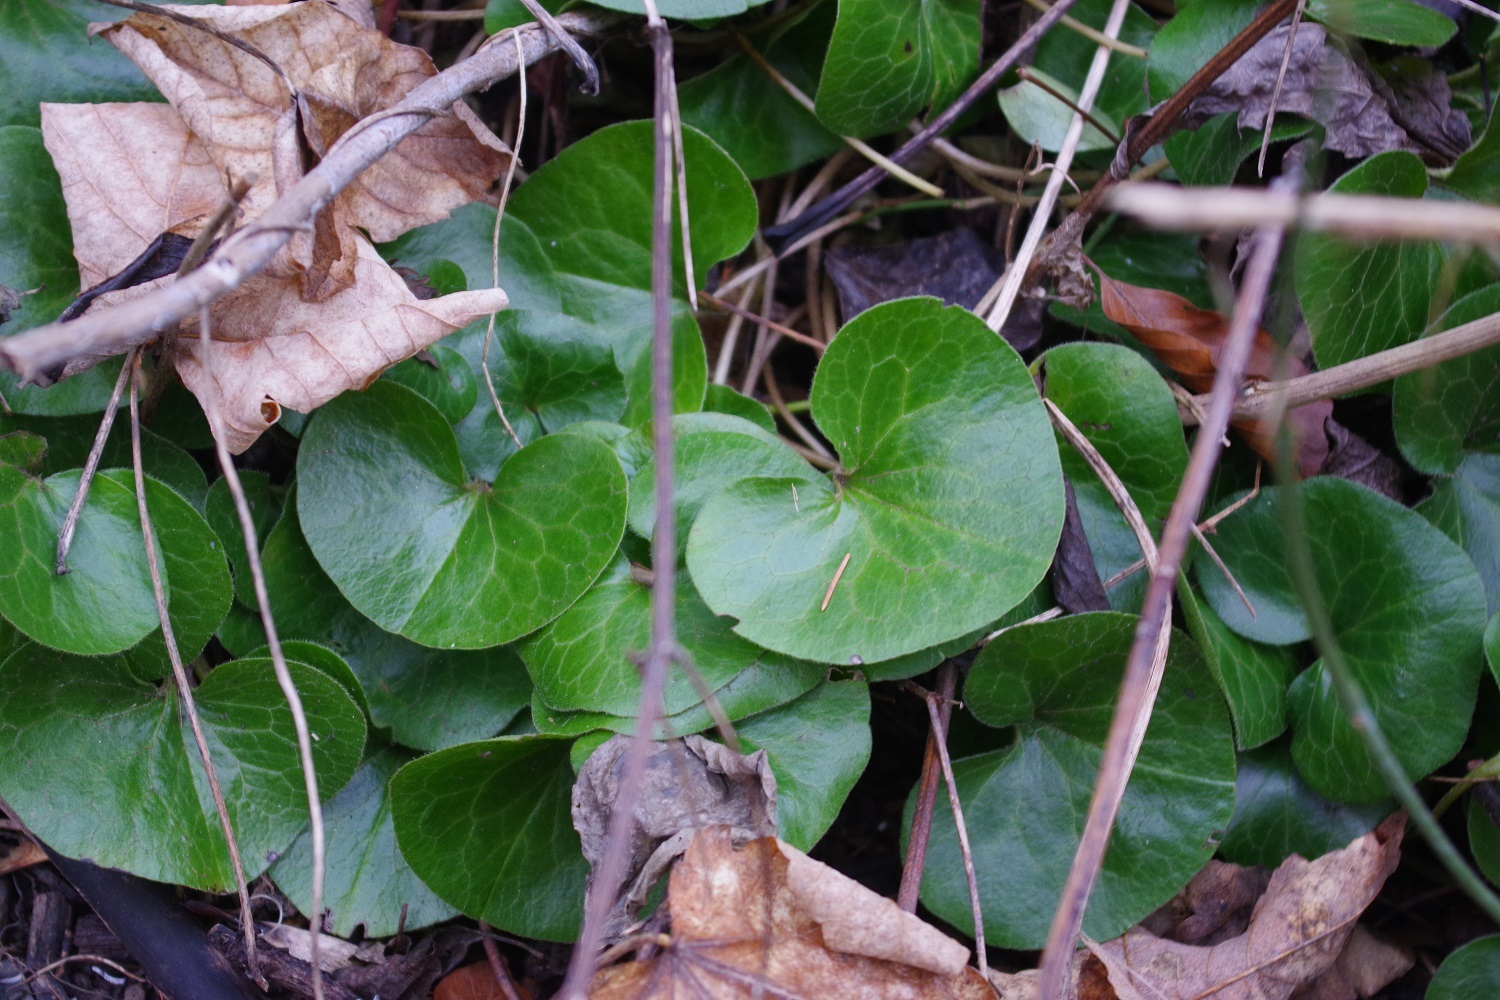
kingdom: Plantae
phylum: Tracheophyta
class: Magnoliopsida
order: Piperales
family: Aristolochiaceae
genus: Asarum
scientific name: Asarum europaeum
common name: Asarabacca
